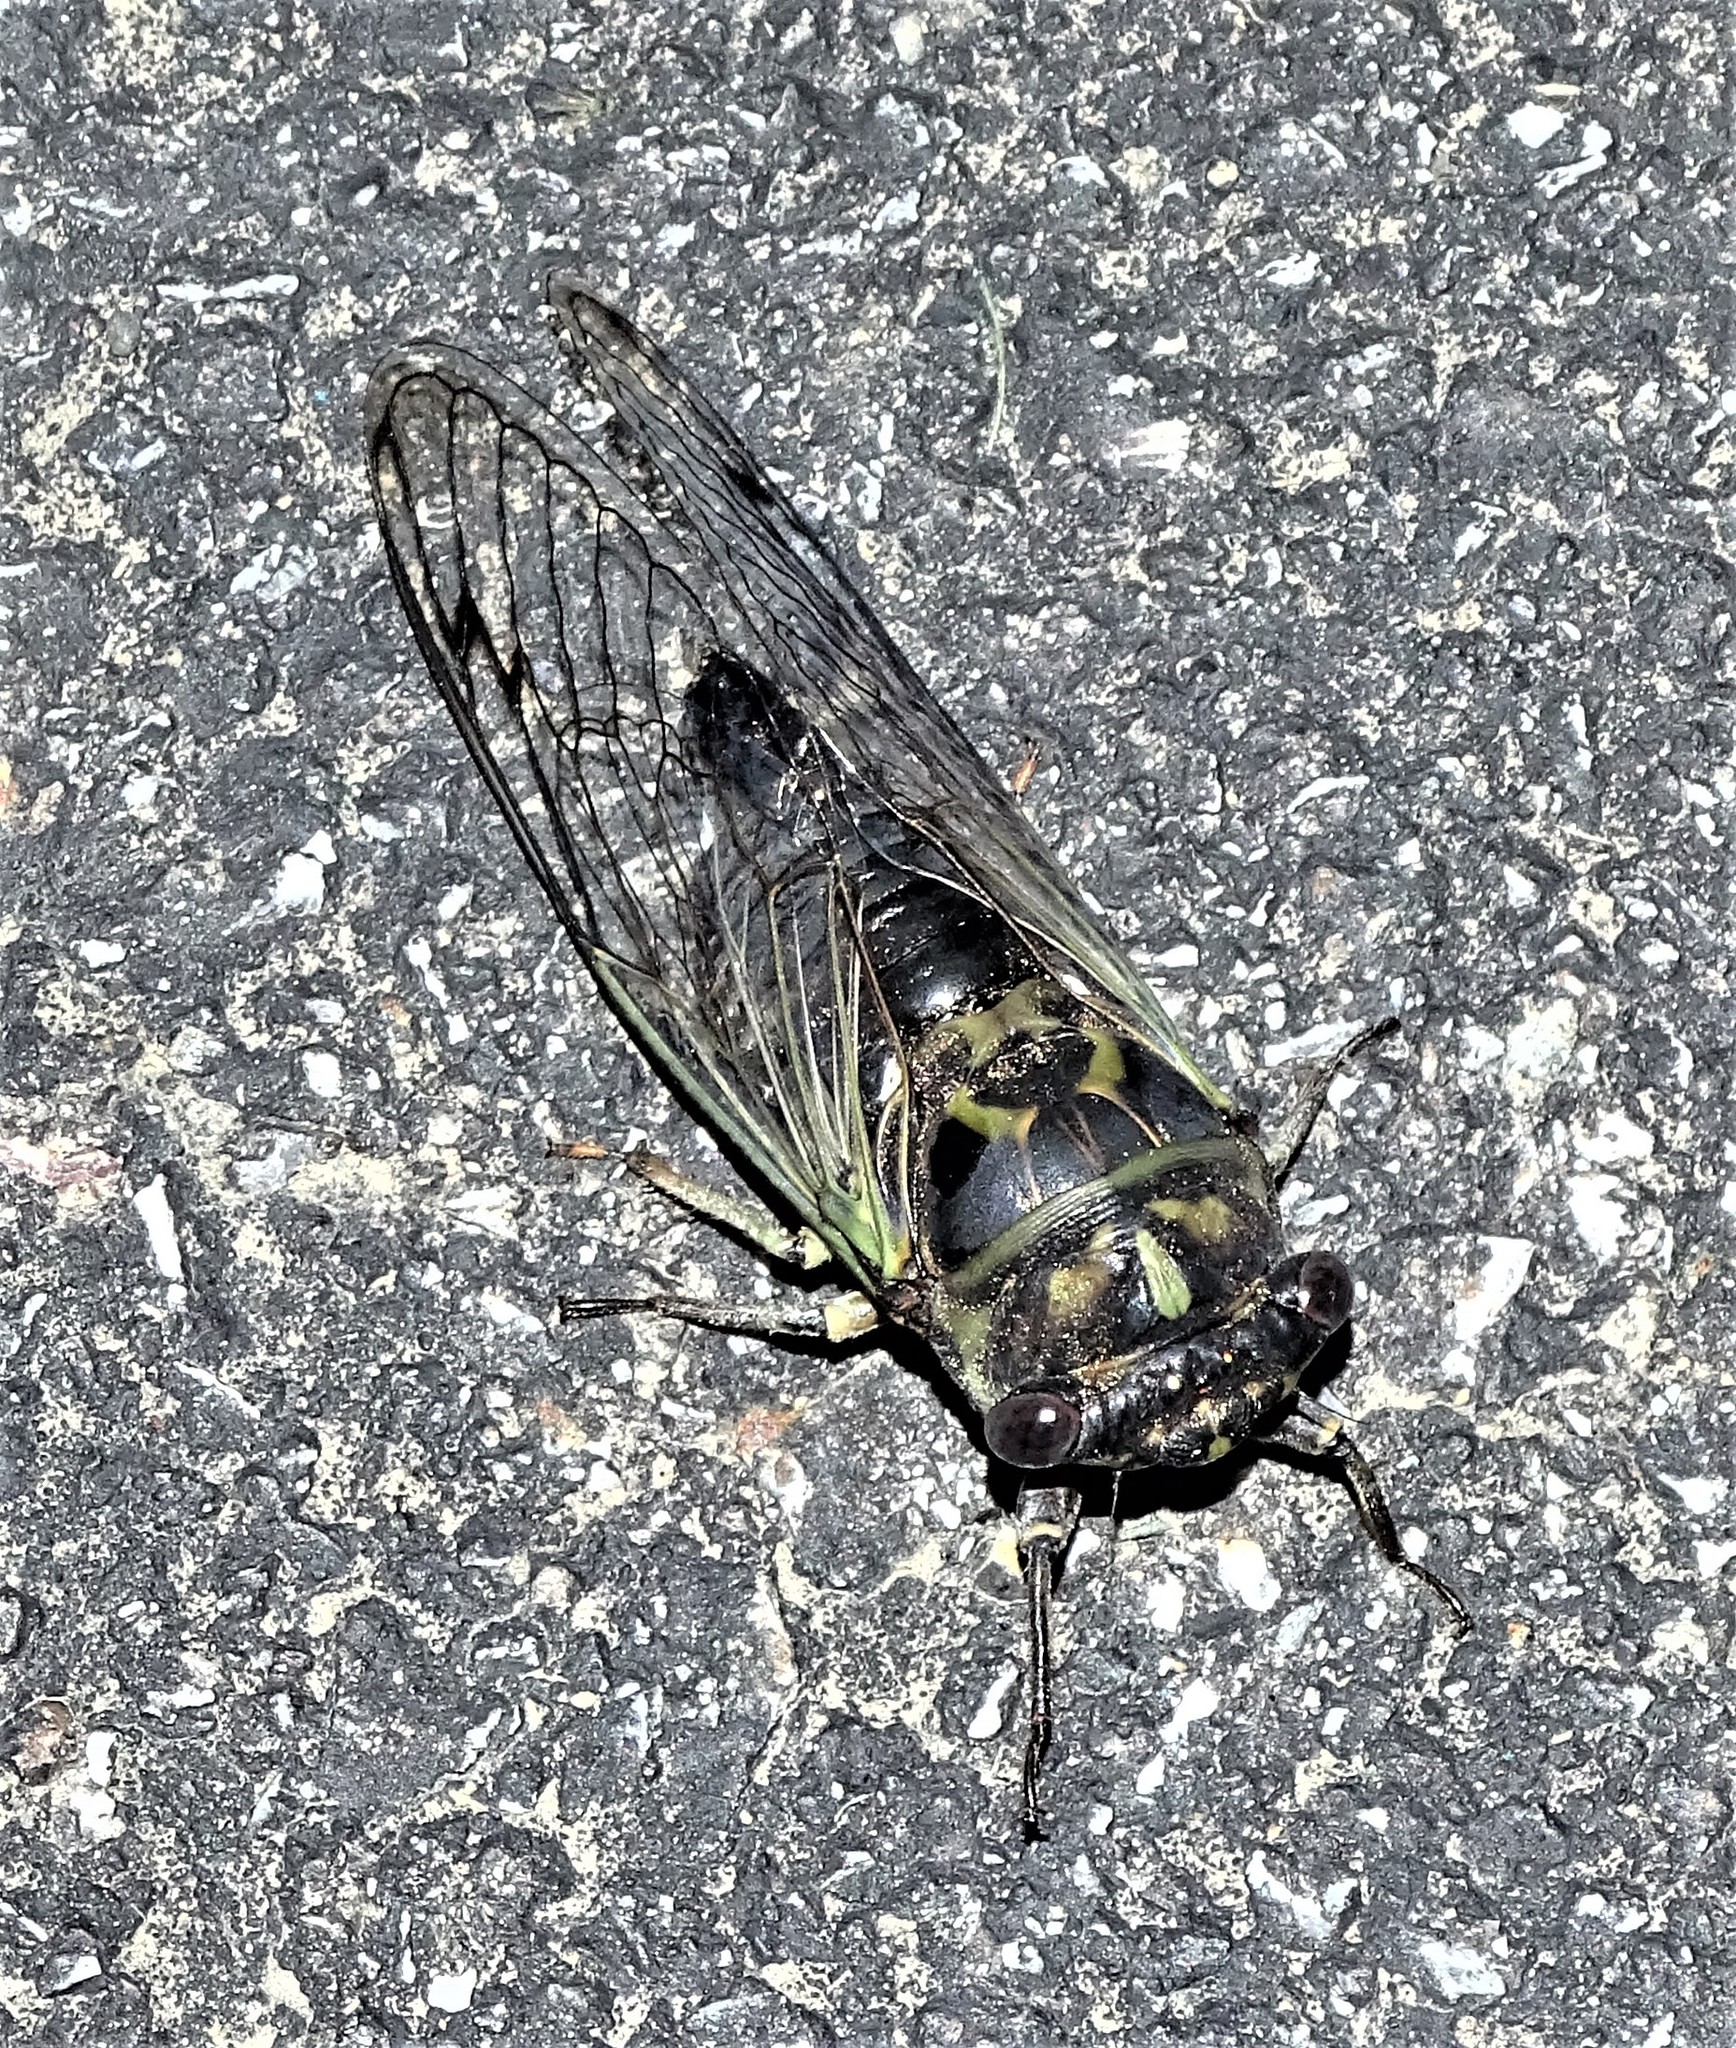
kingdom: Animalia
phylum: Arthropoda
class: Insecta
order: Hemiptera
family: Cicadidae
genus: Neotibicen
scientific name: Neotibicen canicularis
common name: God-day cicada
